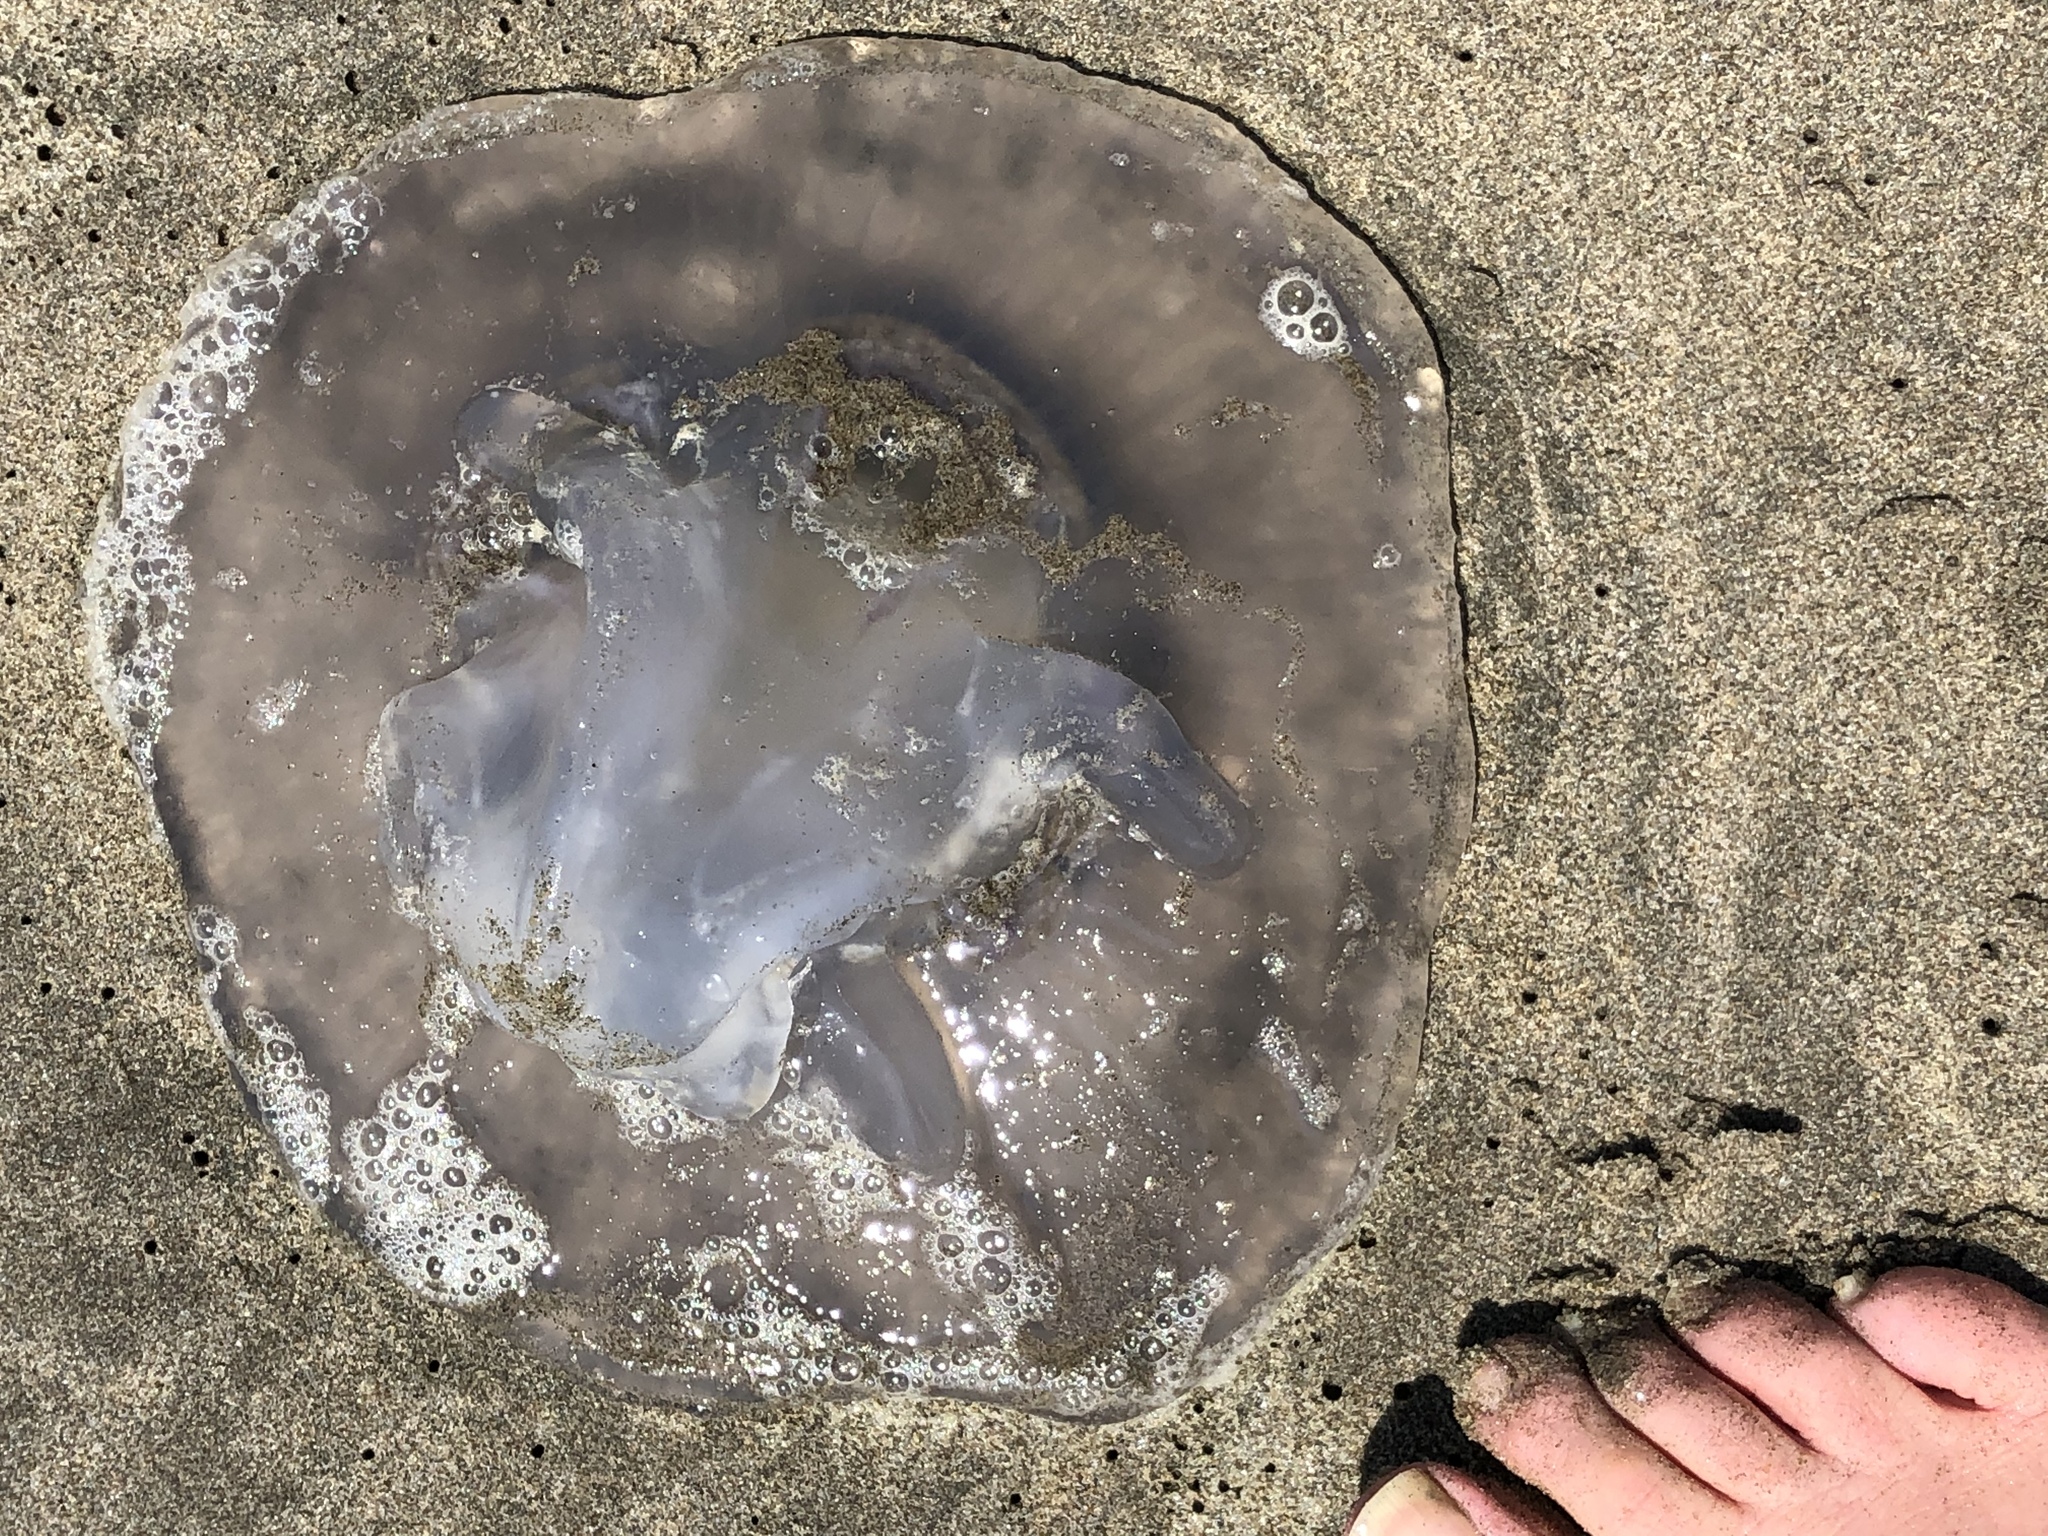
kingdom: Animalia
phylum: Cnidaria
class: Scyphozoa
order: Semaeostomeae
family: Ulmaridae
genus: Aurelia
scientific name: Aurelia labiata
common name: Pacific moon jelly
